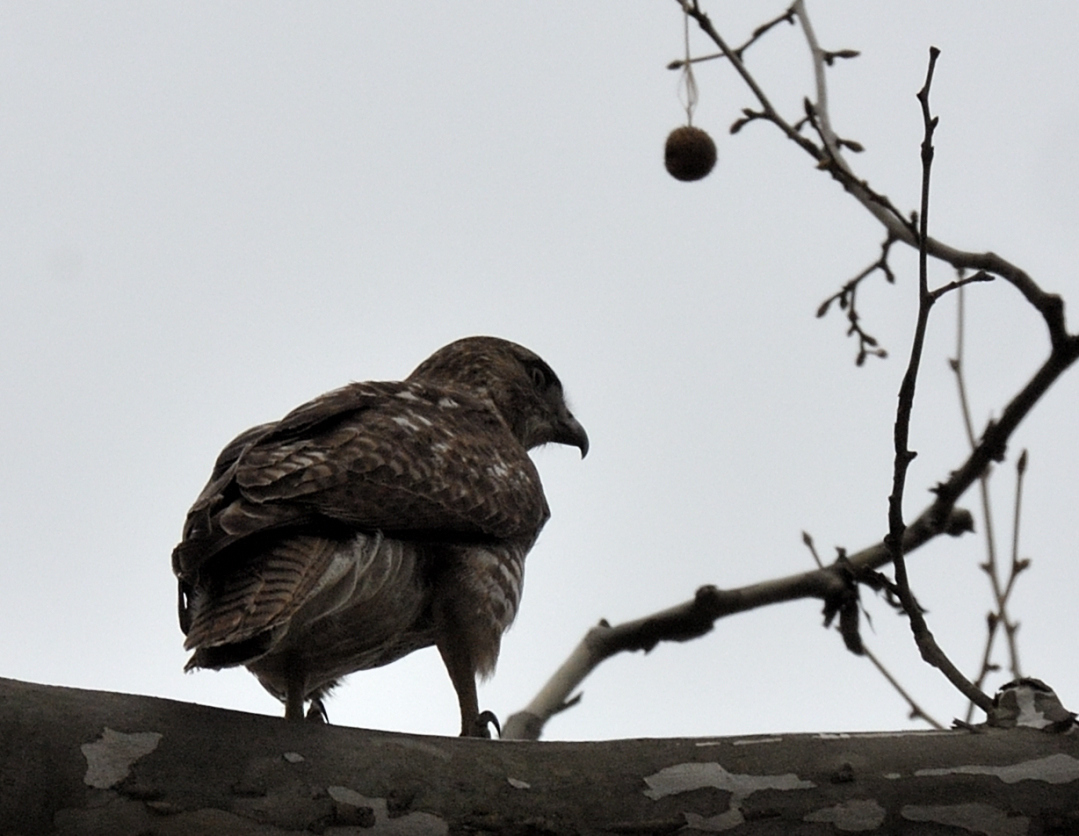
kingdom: Animalia
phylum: Chordata
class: Aves
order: Accipitriformes
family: Accipitridae
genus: Buteo
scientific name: Buteo jamaicensis
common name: Red-tailed hawk
